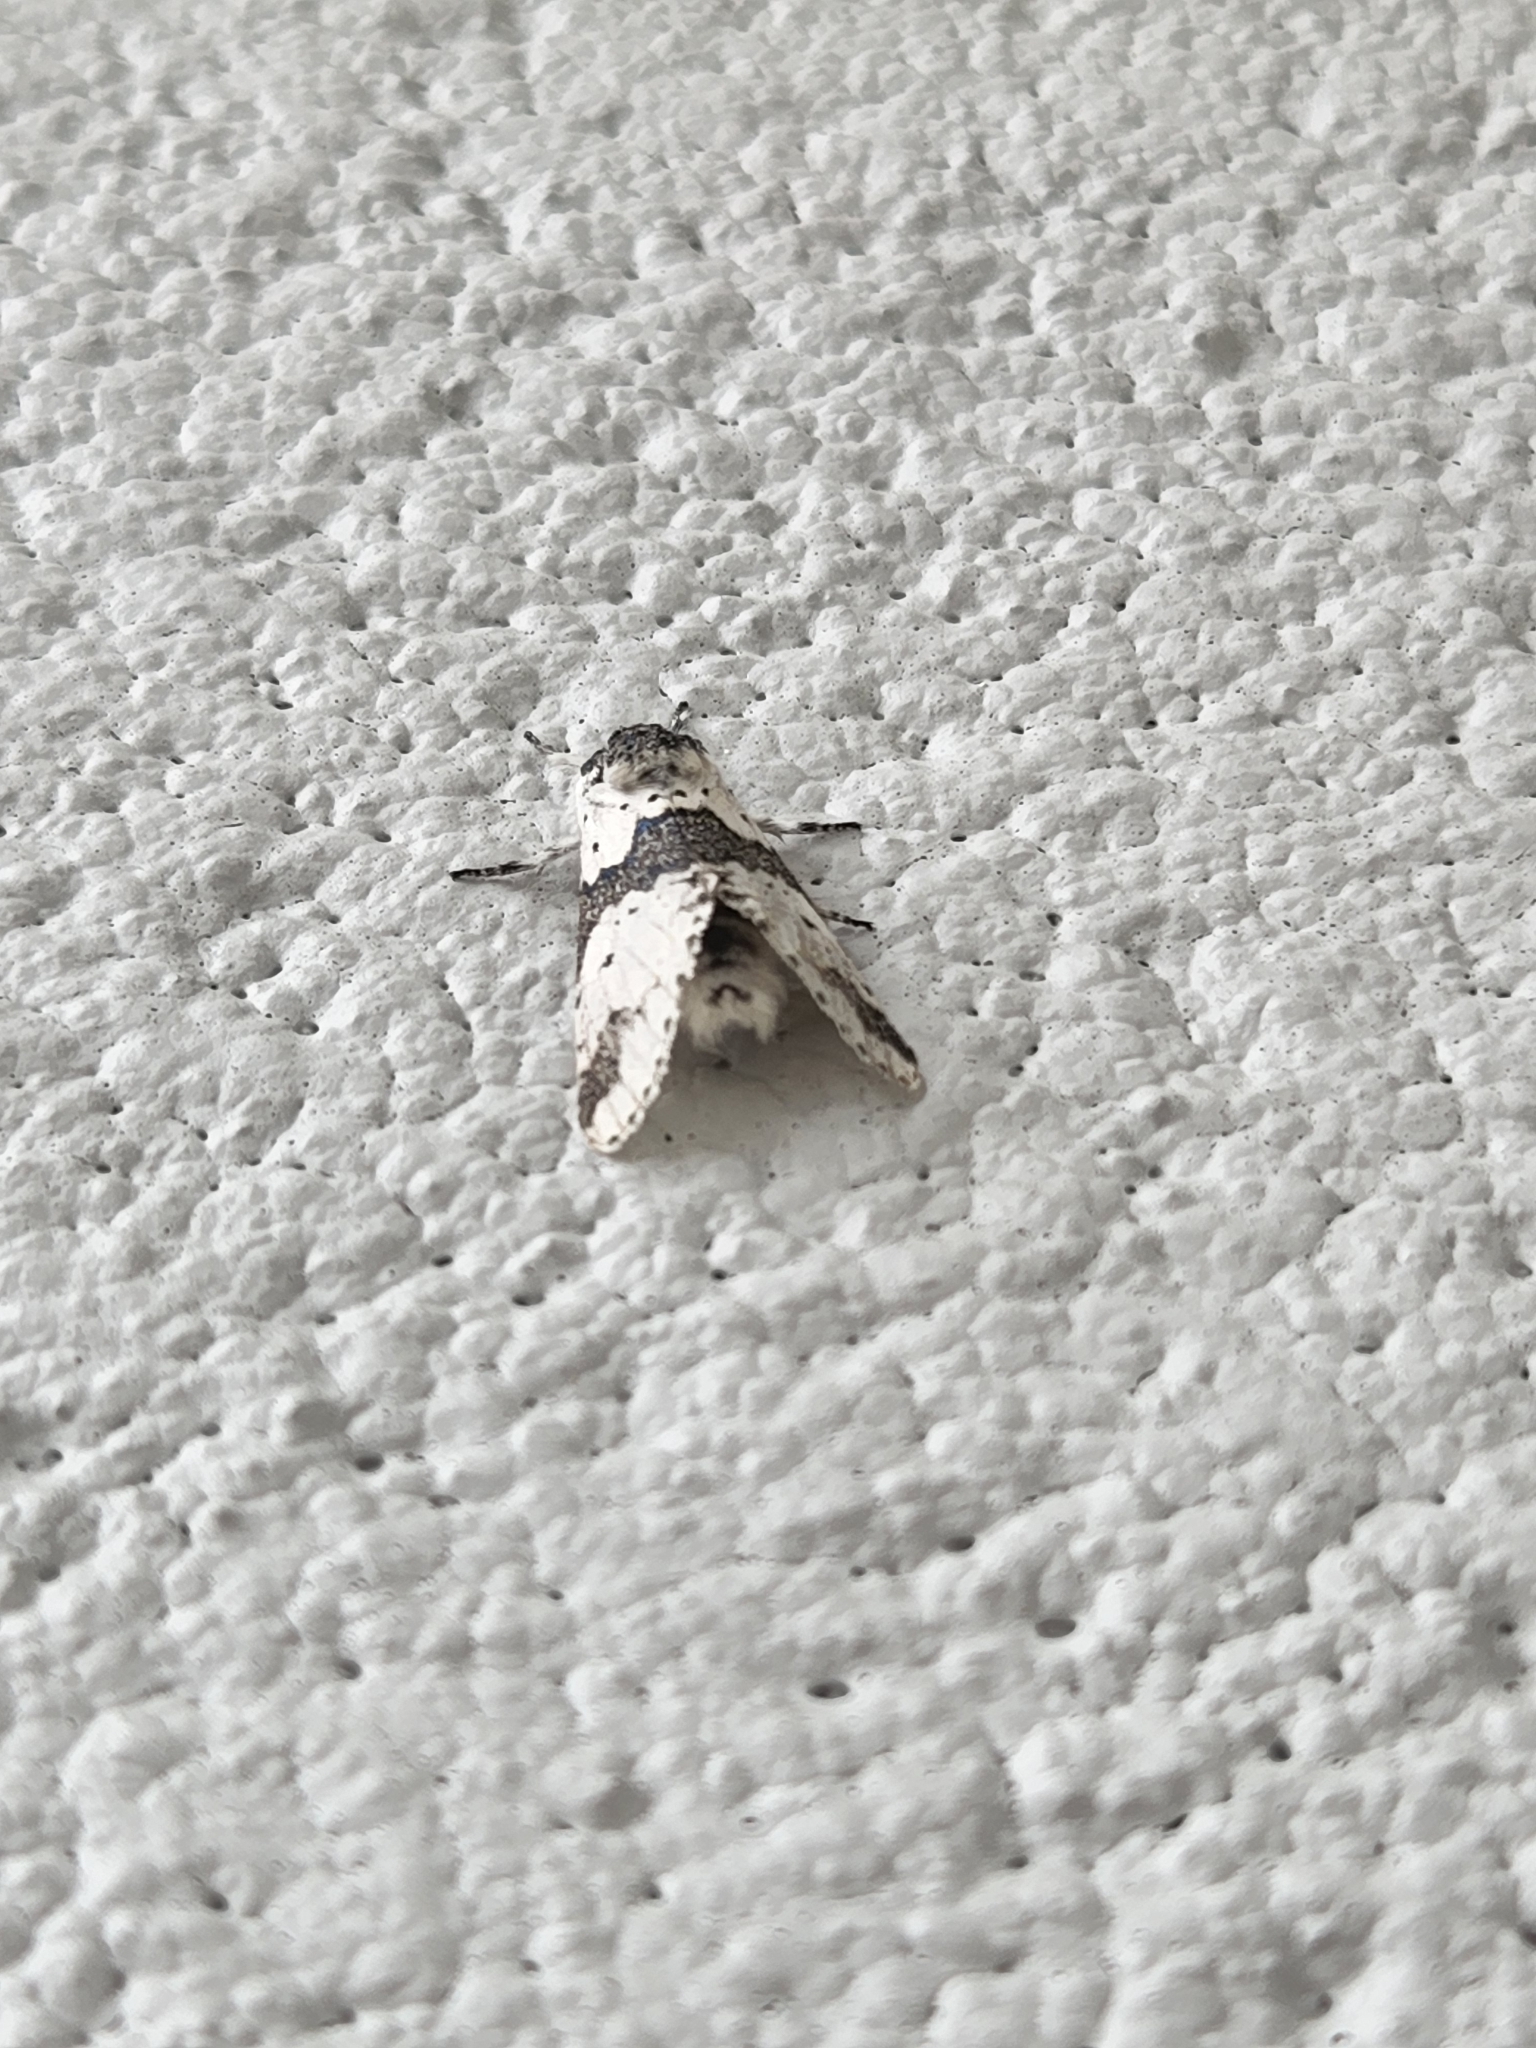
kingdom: Animalia
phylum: Arthropoda
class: Insecta
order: Lepidoptera
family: Notodontidae
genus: Furcula
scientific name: Furcula borealis
